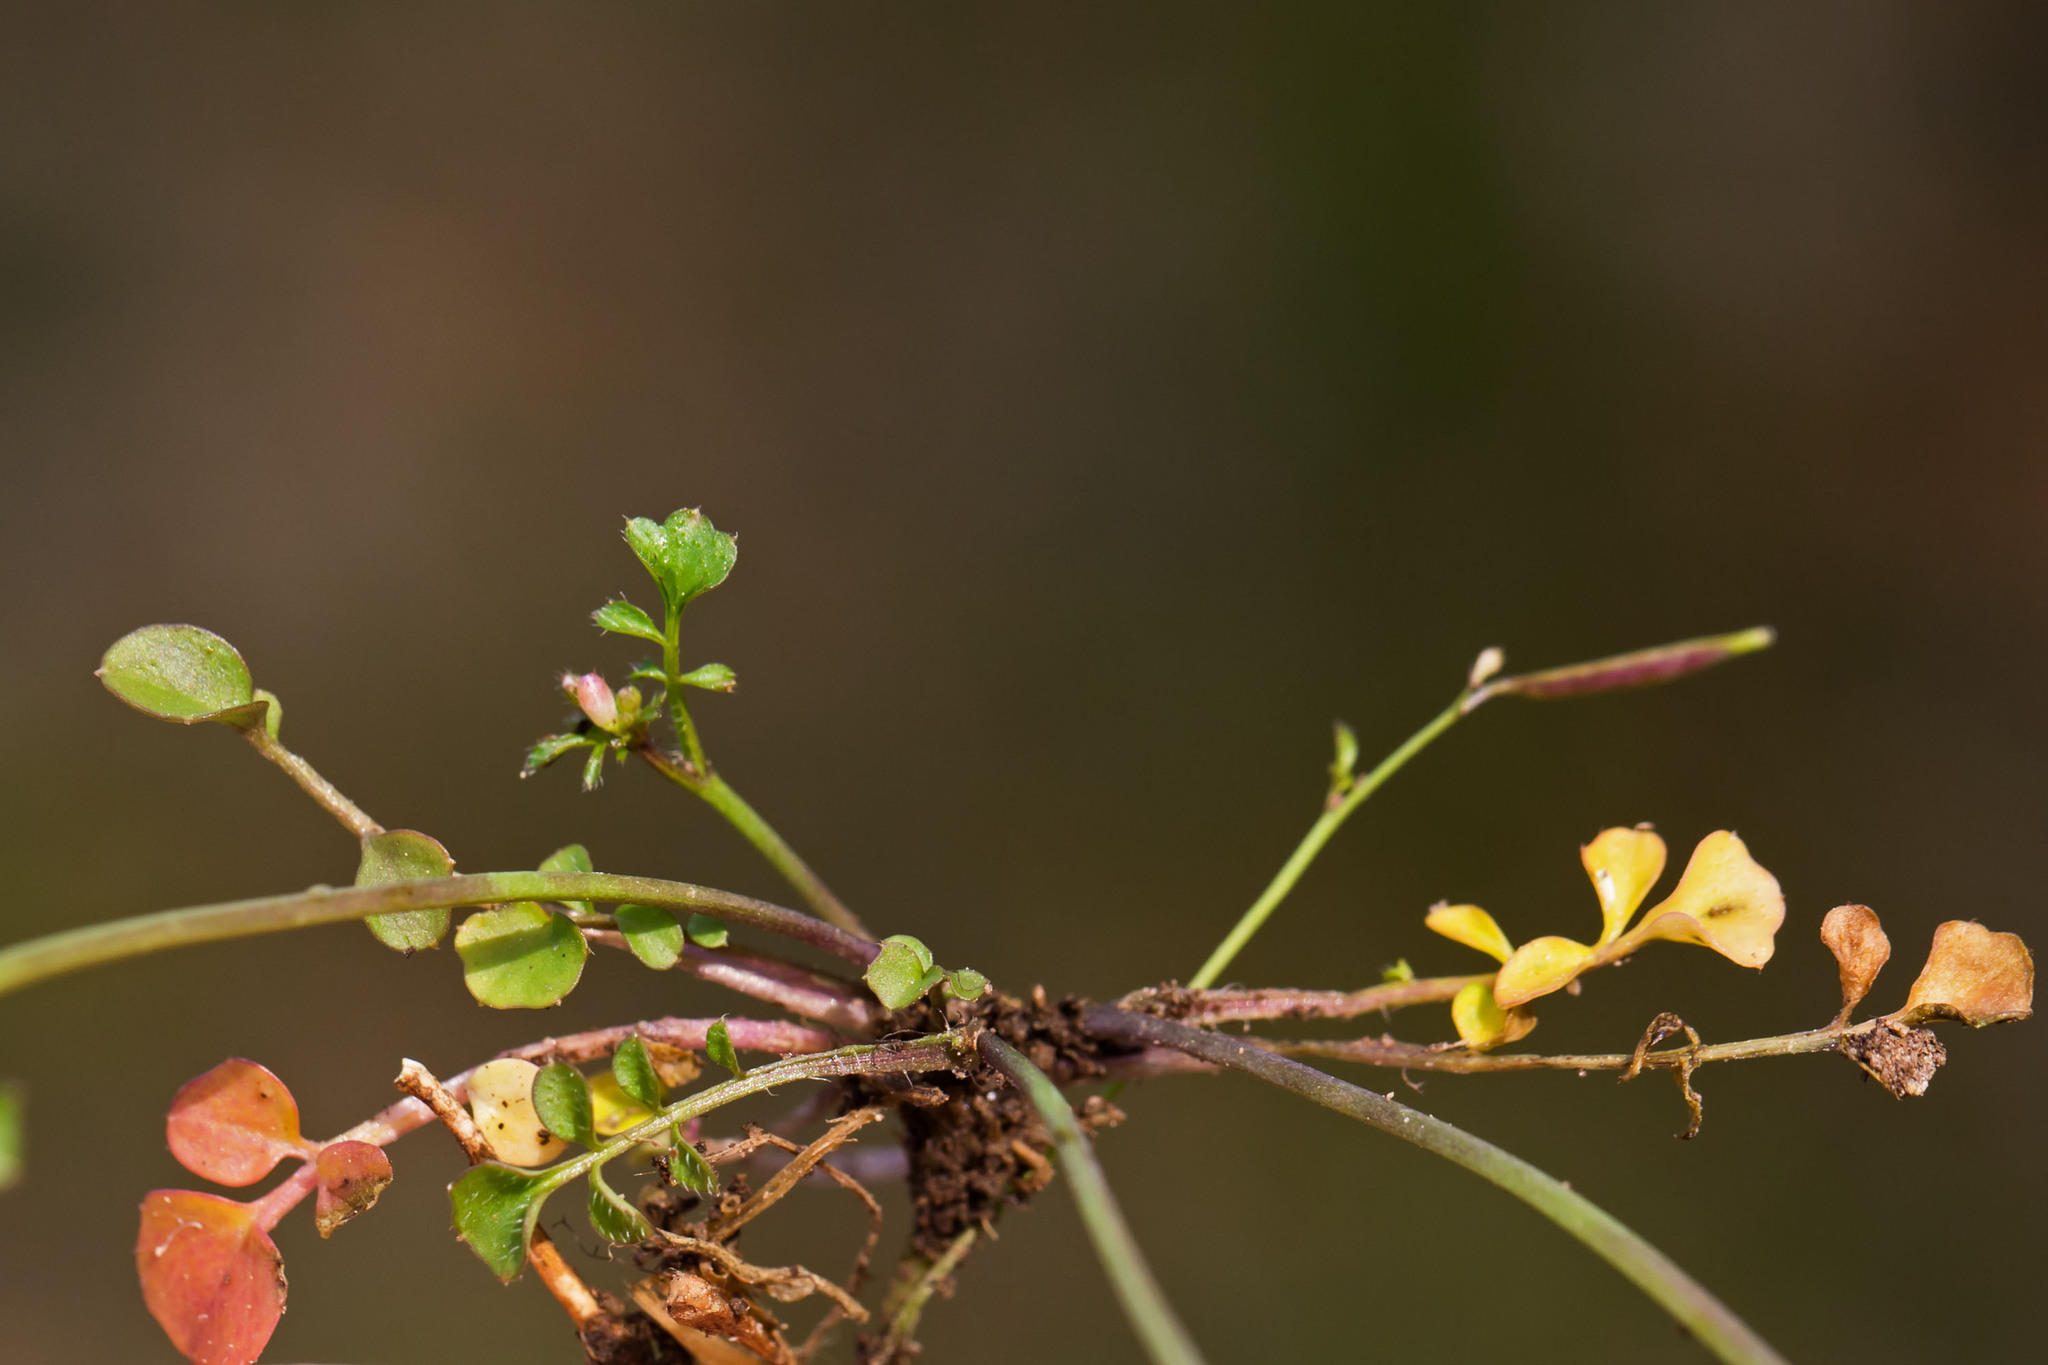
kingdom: Plantae
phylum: Tracheophyta
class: Magnoliopsida
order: Brassicales
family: Brassicaceae
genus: Cardamine
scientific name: Cardamine hirsuta
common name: Hairy bittercress
